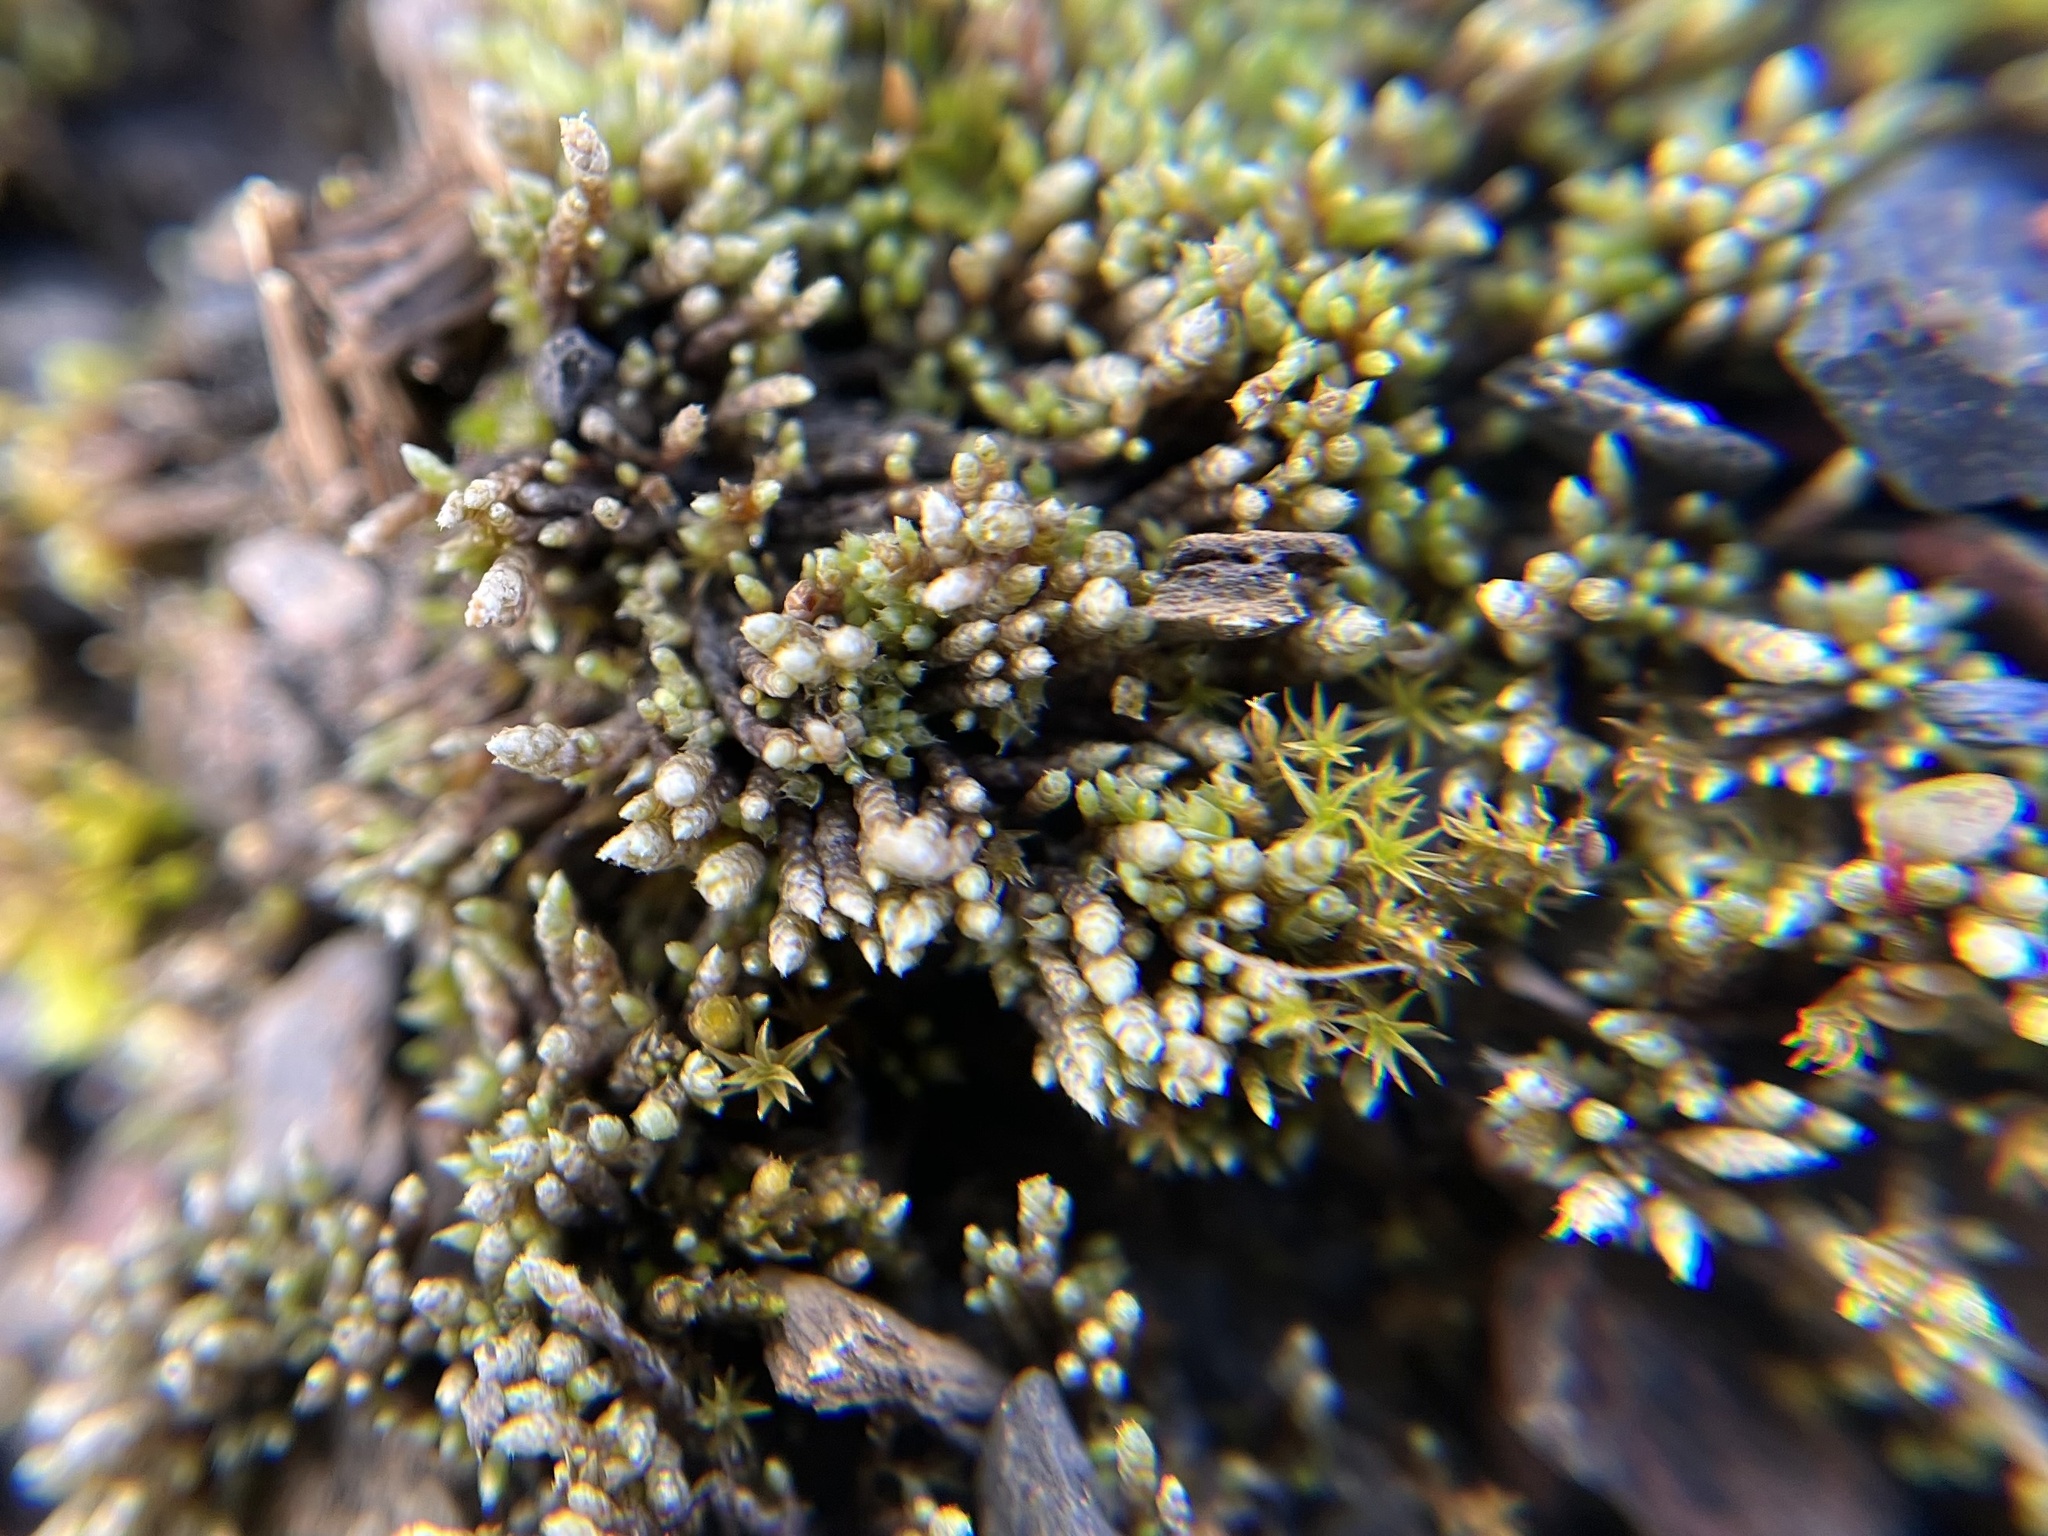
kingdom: Plantae
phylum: Bryophyta
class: Bryopsida
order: Bryales
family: Bryaceae
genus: Bryum
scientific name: Bryum argenteum
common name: Silver-moss
